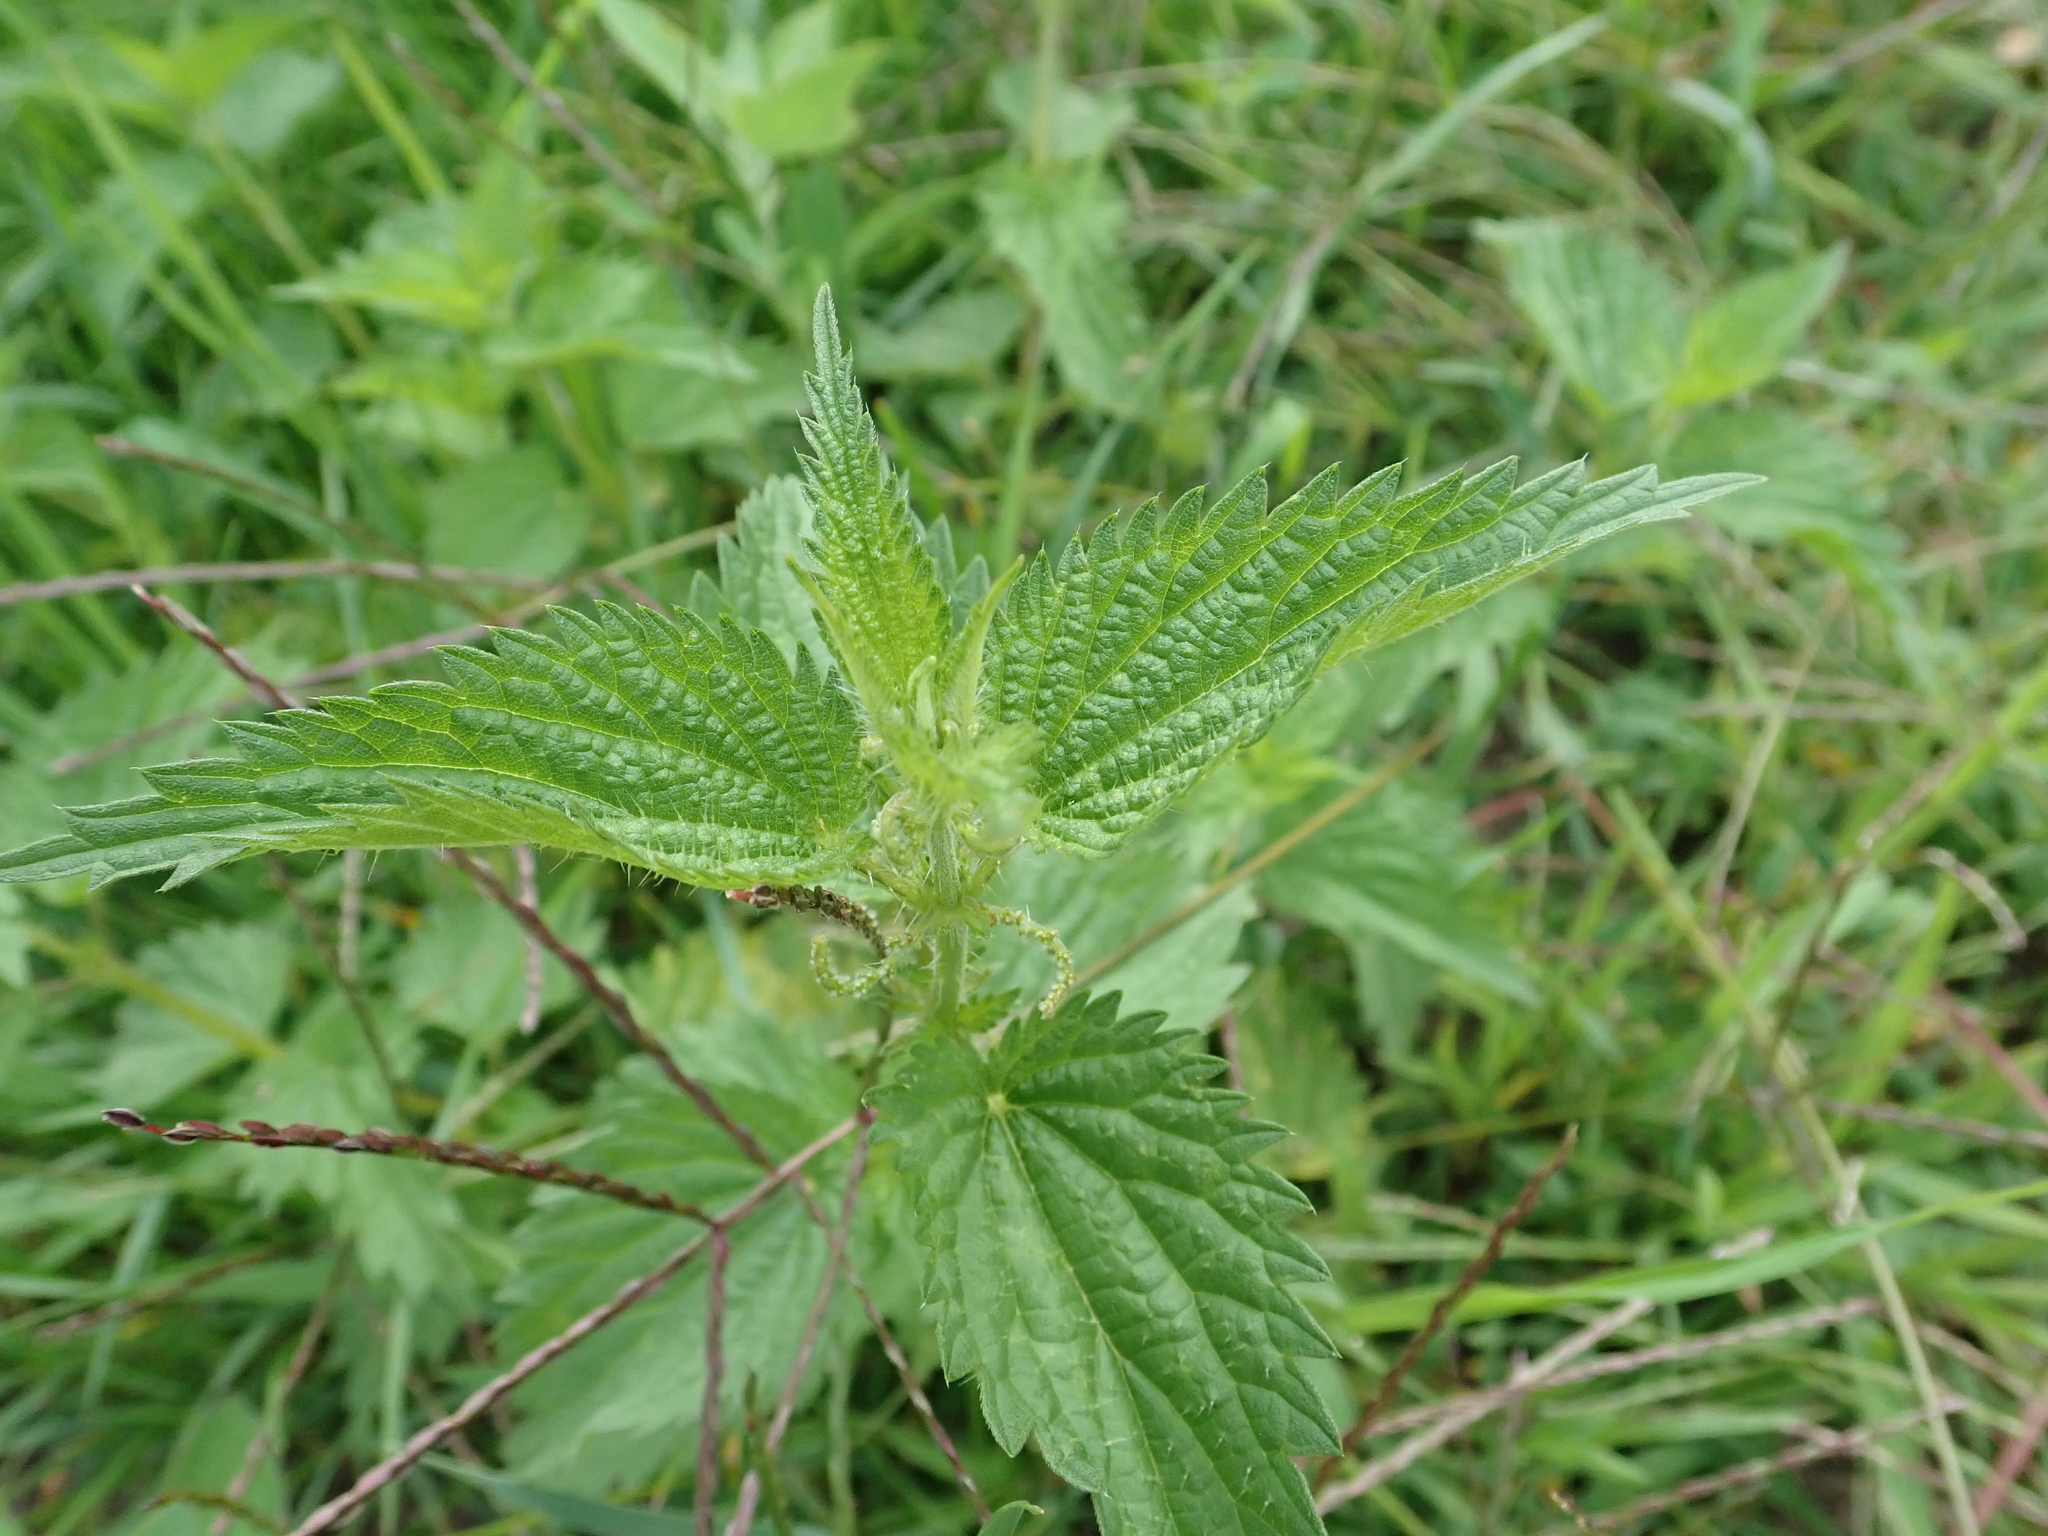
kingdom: Plantae
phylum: Tracheophyta
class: Magnoliopsida
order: Rosales
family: Urticaceae
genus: Urtica
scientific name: Urtica dioica
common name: Common nettle
